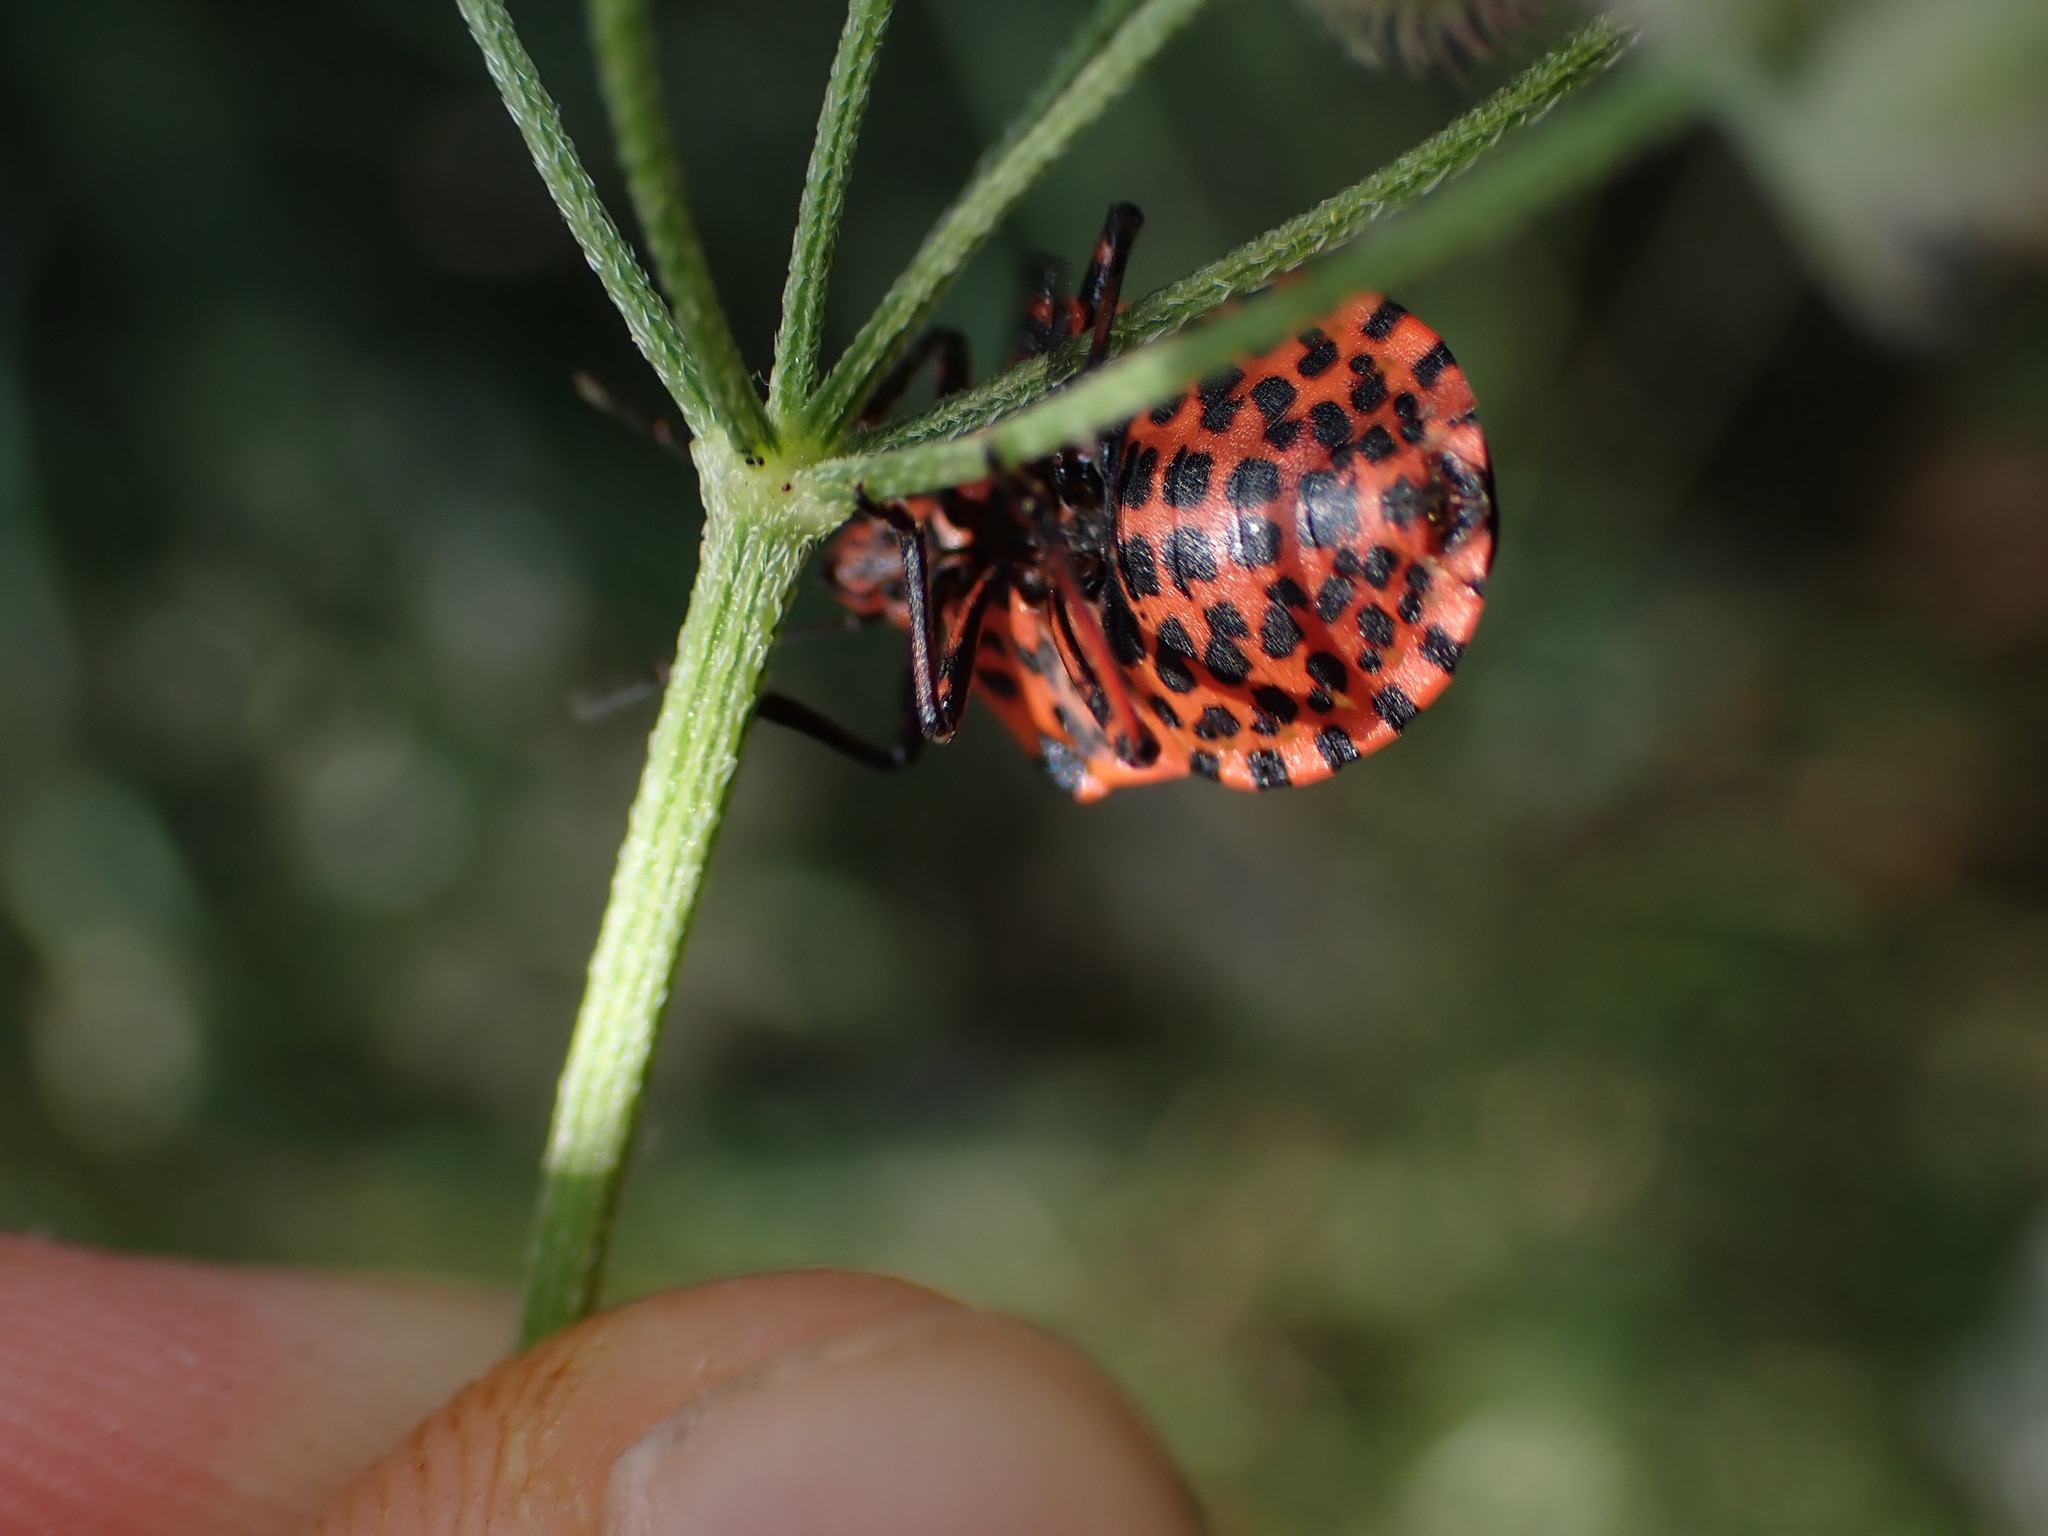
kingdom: Animalia
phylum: Arthropoda
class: Insecta
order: Hemiptera
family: Pentatomidae
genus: Graphosoma
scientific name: Graphosoma italicum
